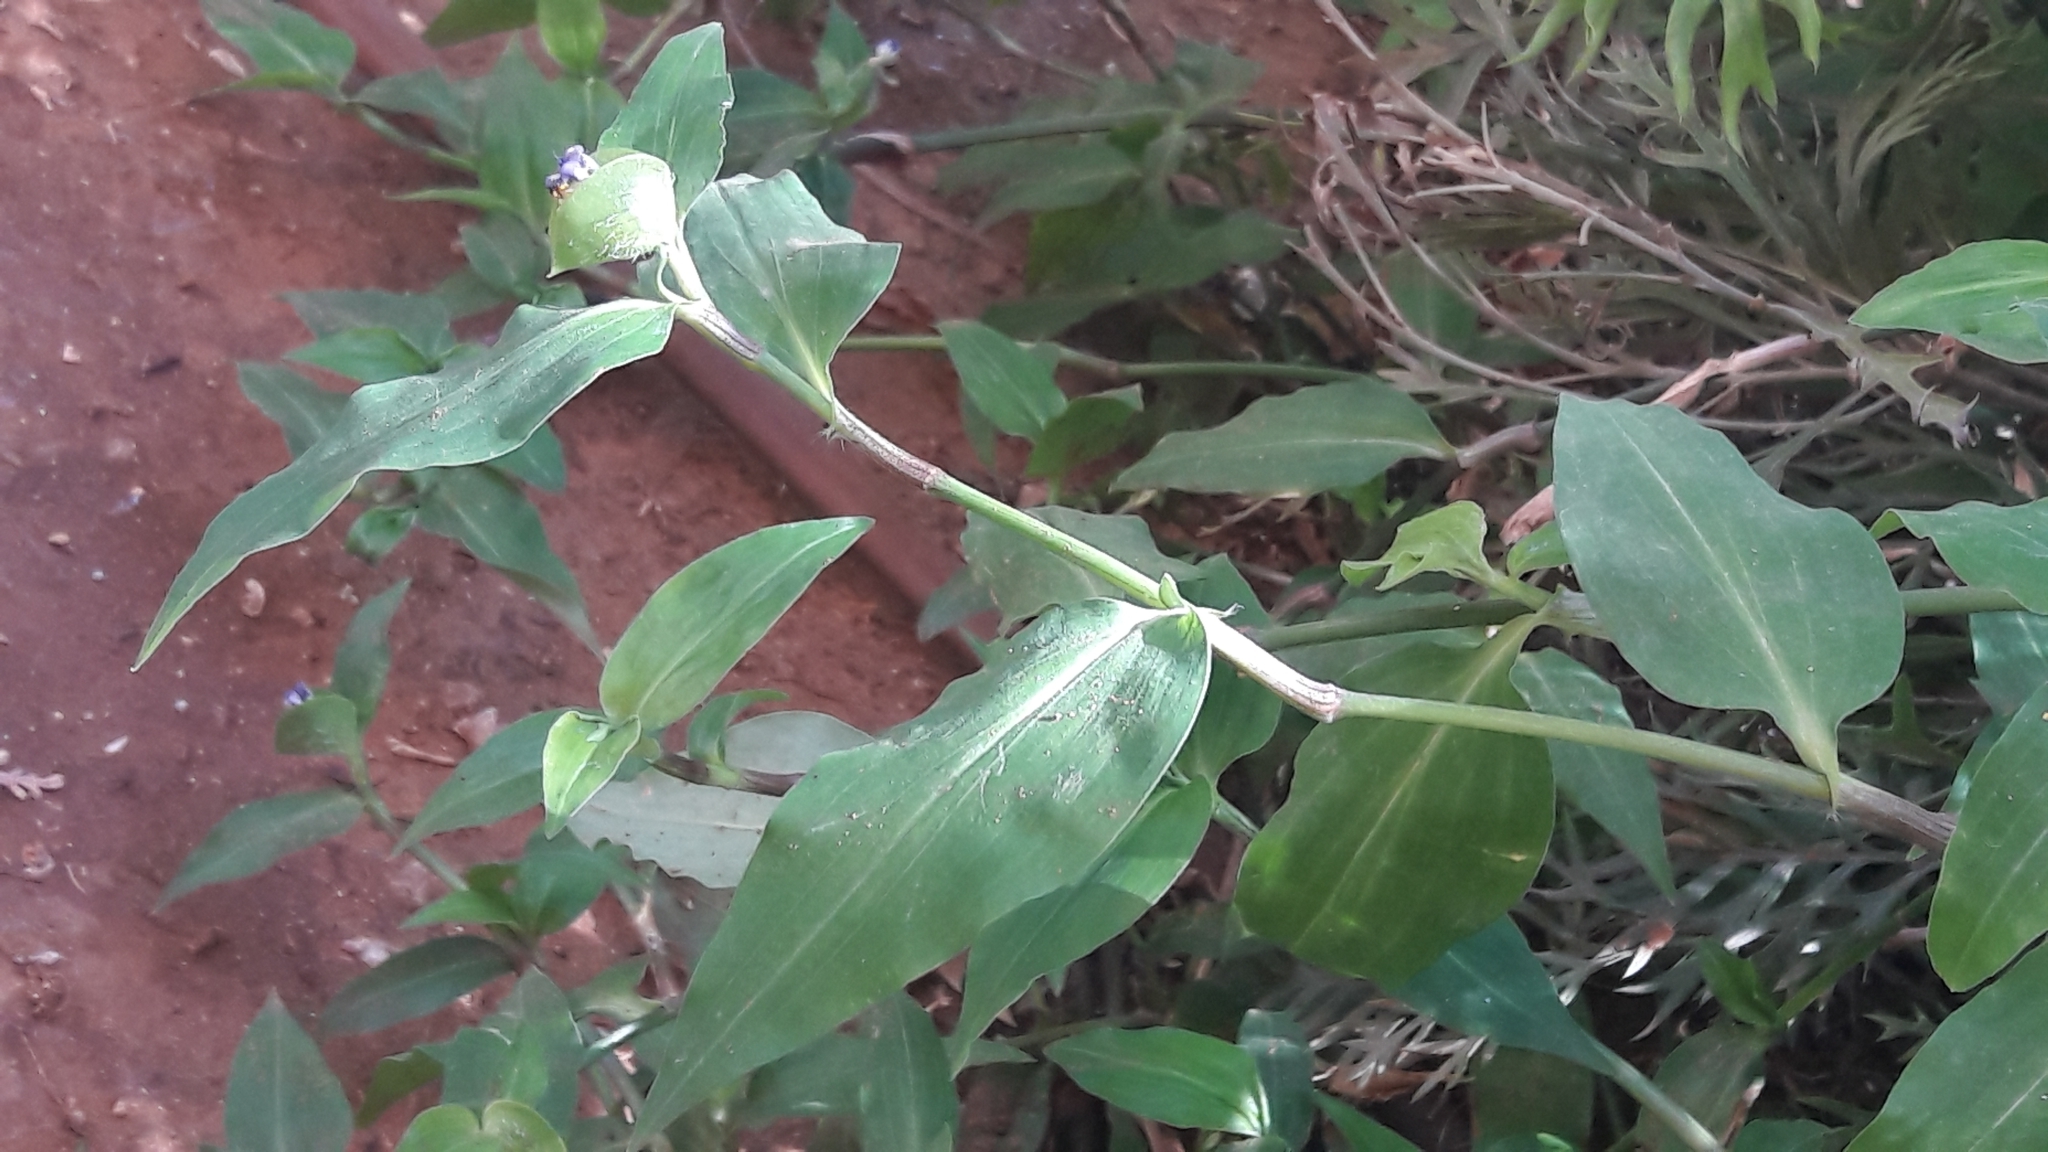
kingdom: Plantae
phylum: Tracheophyta
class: Liliopsida
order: Commelinales
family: Commelinaceae
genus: Commelina
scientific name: Commelina erecta
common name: Blousel blommetjie
